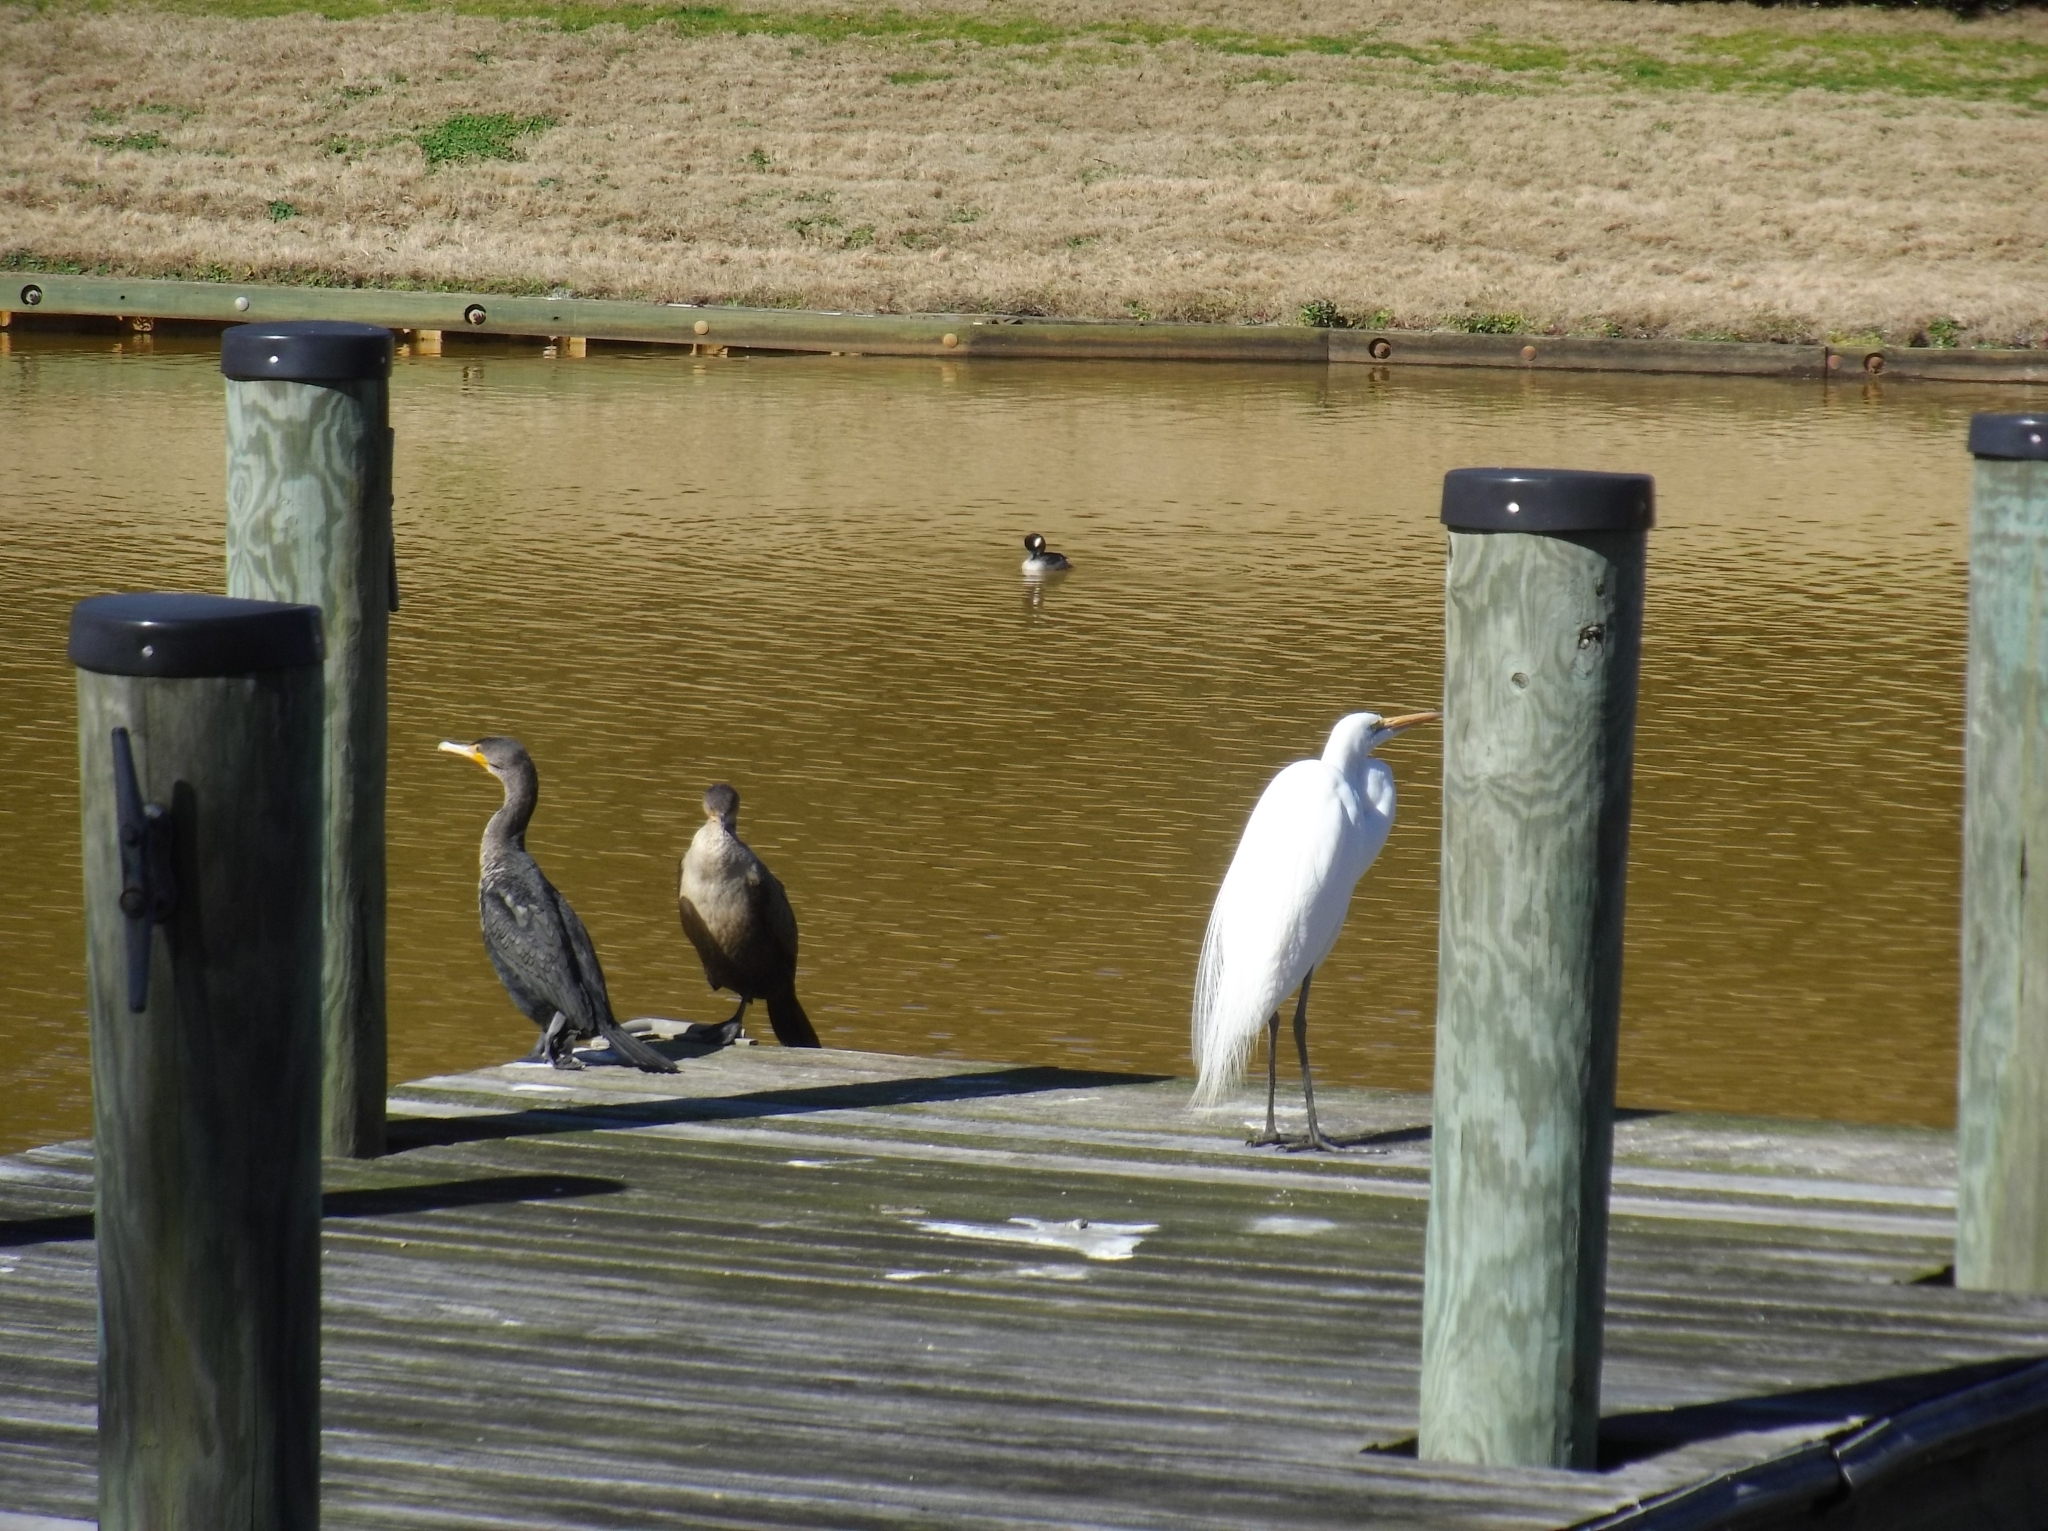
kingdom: Animalia
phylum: Chordata
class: Aves
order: Suliformes
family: Phalacrocoracidae
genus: Phalacrocorax
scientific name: Phalacrocorax auritus
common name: Double-crested cormorant
